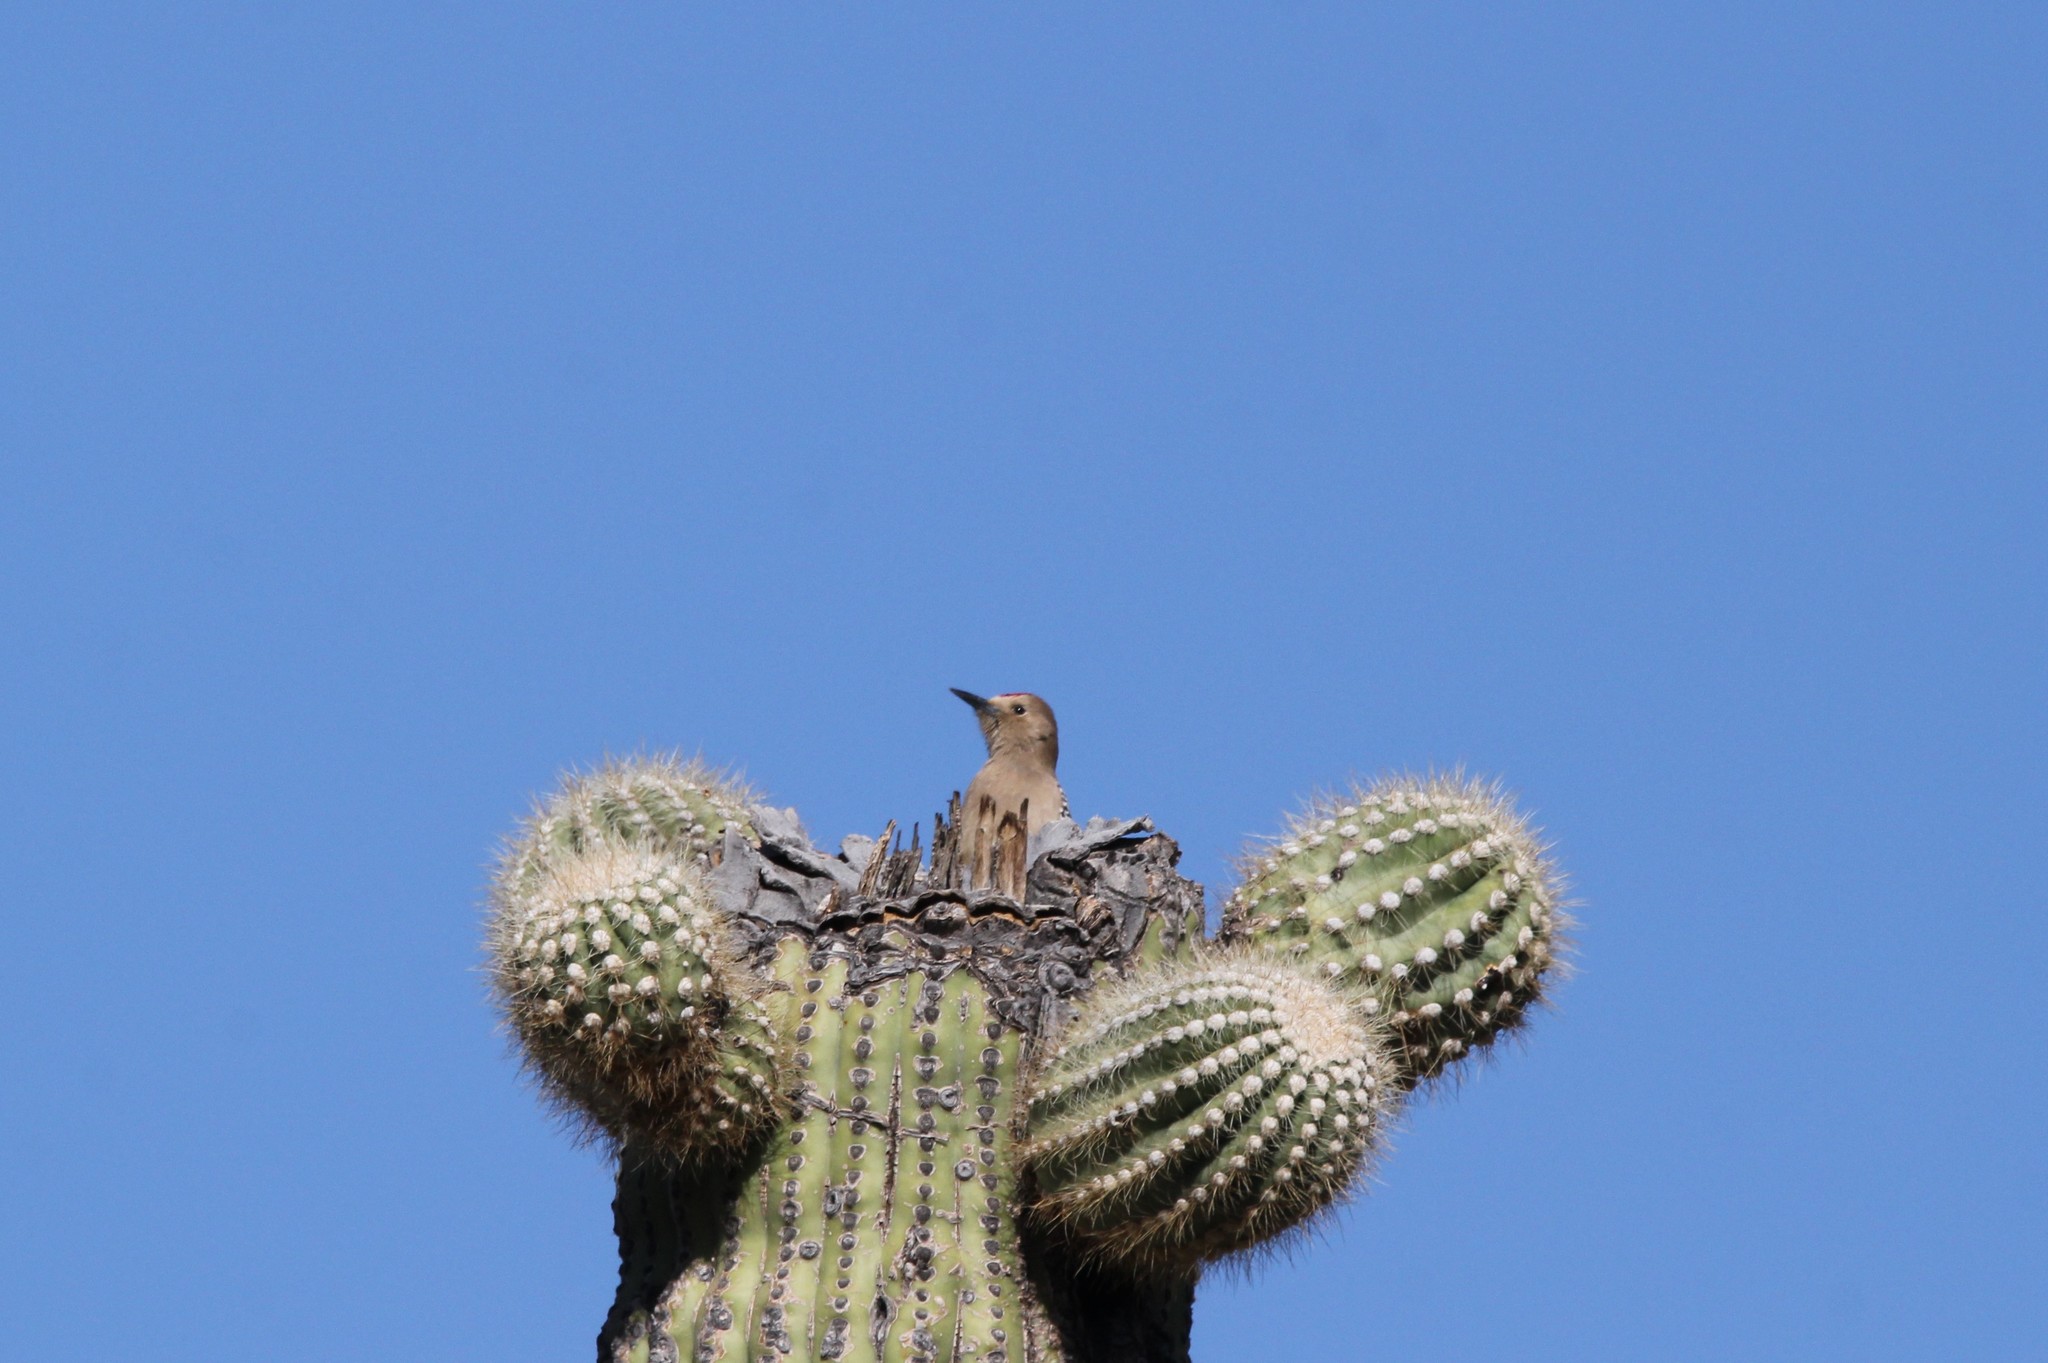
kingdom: Animalia
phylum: Chordata
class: Aves
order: Piciformes
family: Picidae
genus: Melanerpes
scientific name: Melanerpes uropygialis
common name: Gila woodpecker
